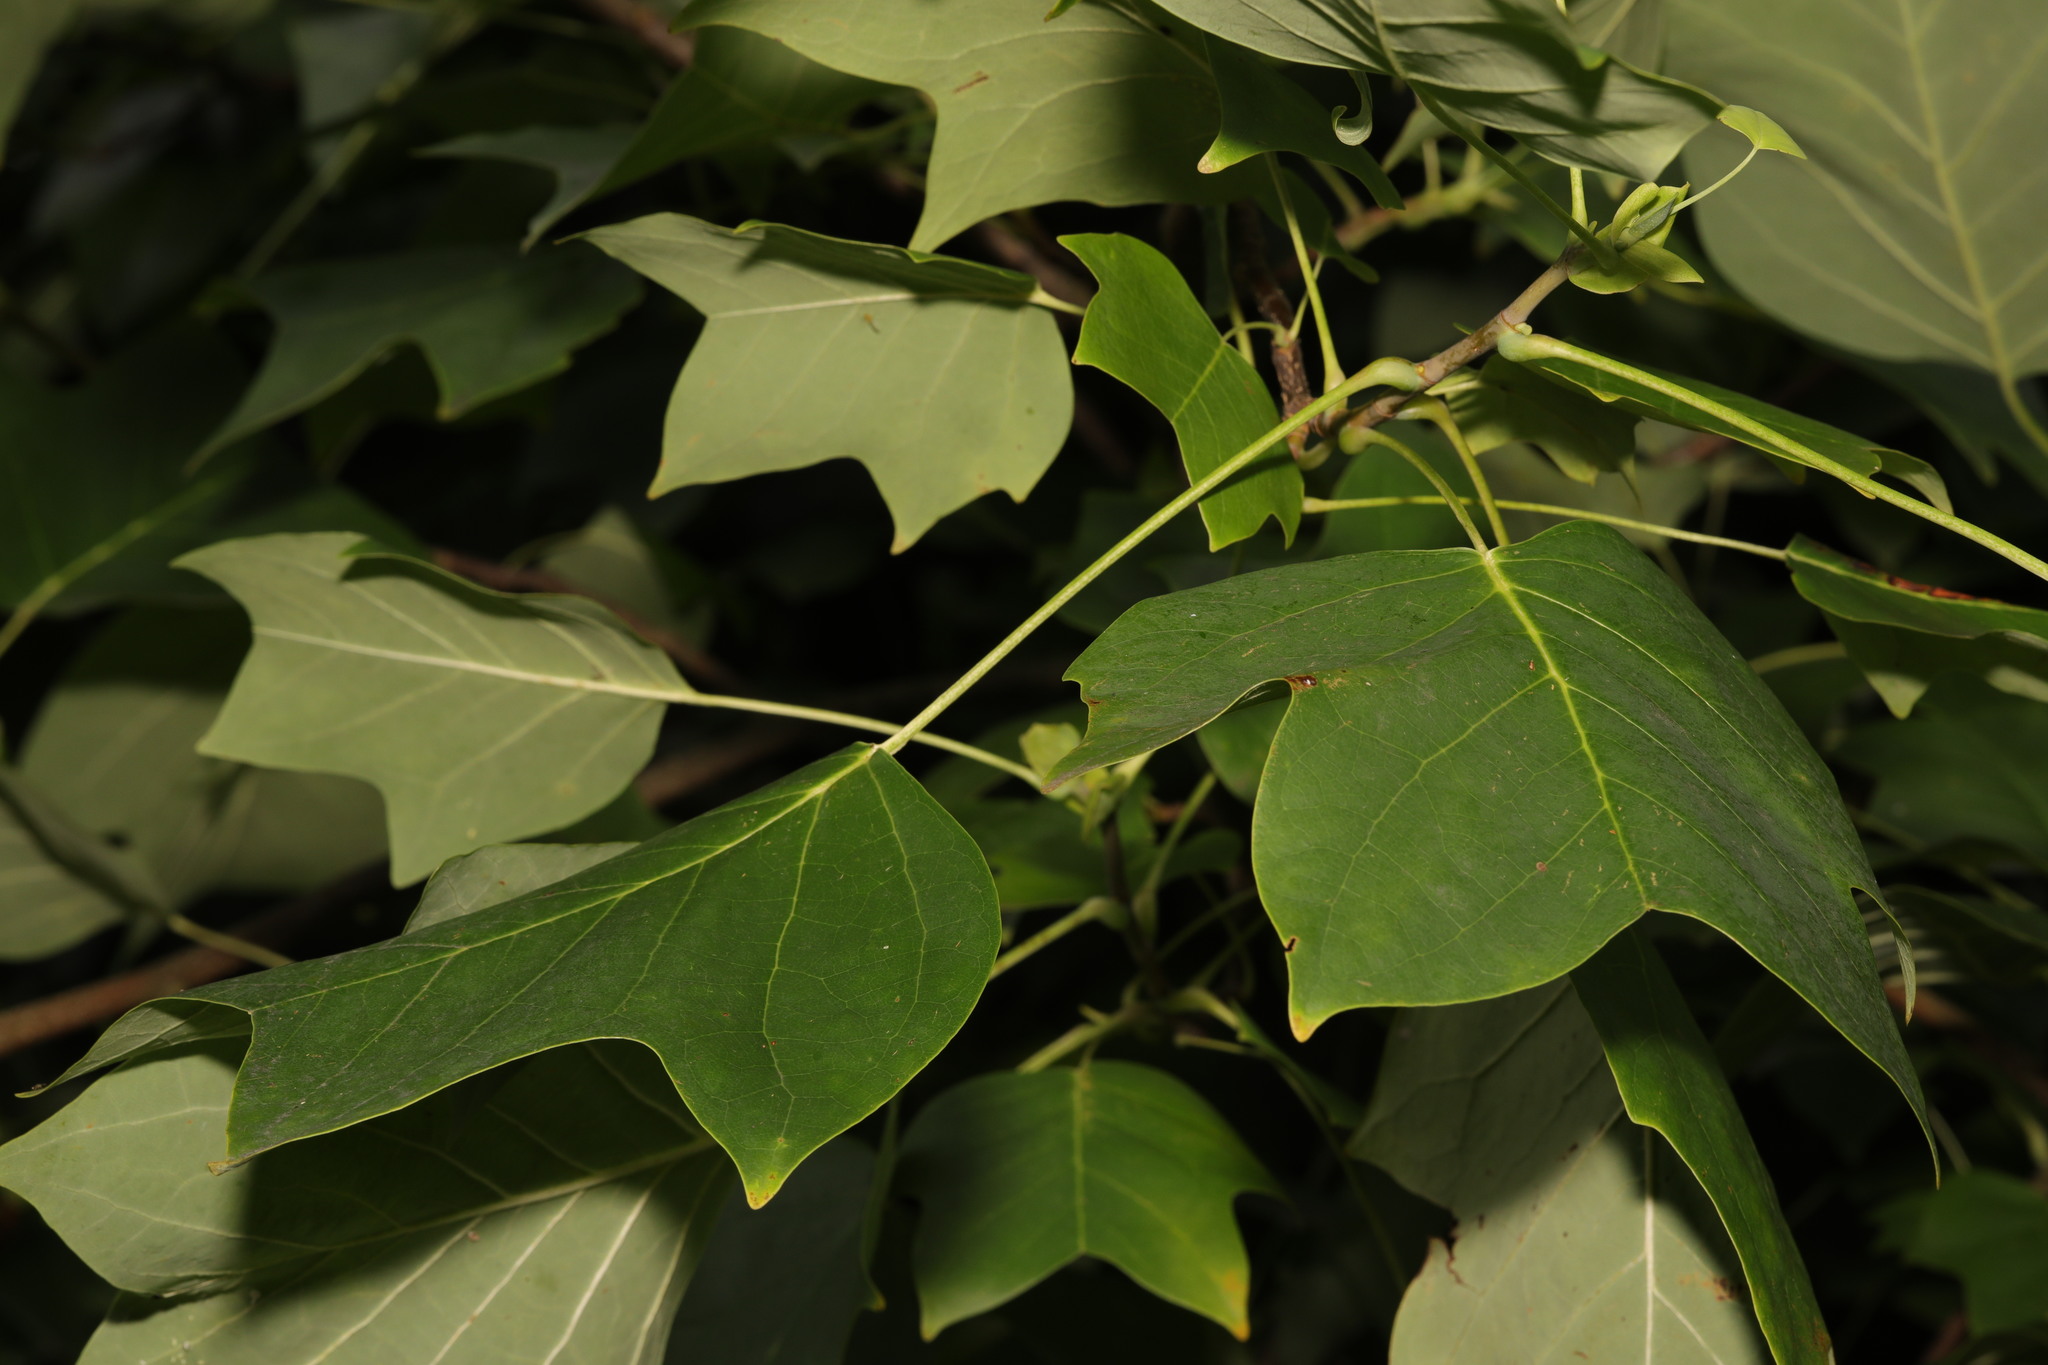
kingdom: Plantae
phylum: Tracheophyta
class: Magnoliopsida
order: Magnoliales
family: Magnoliaceae
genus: Liriodendron
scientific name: Liriodendron tulipifera
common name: Tulip tree
